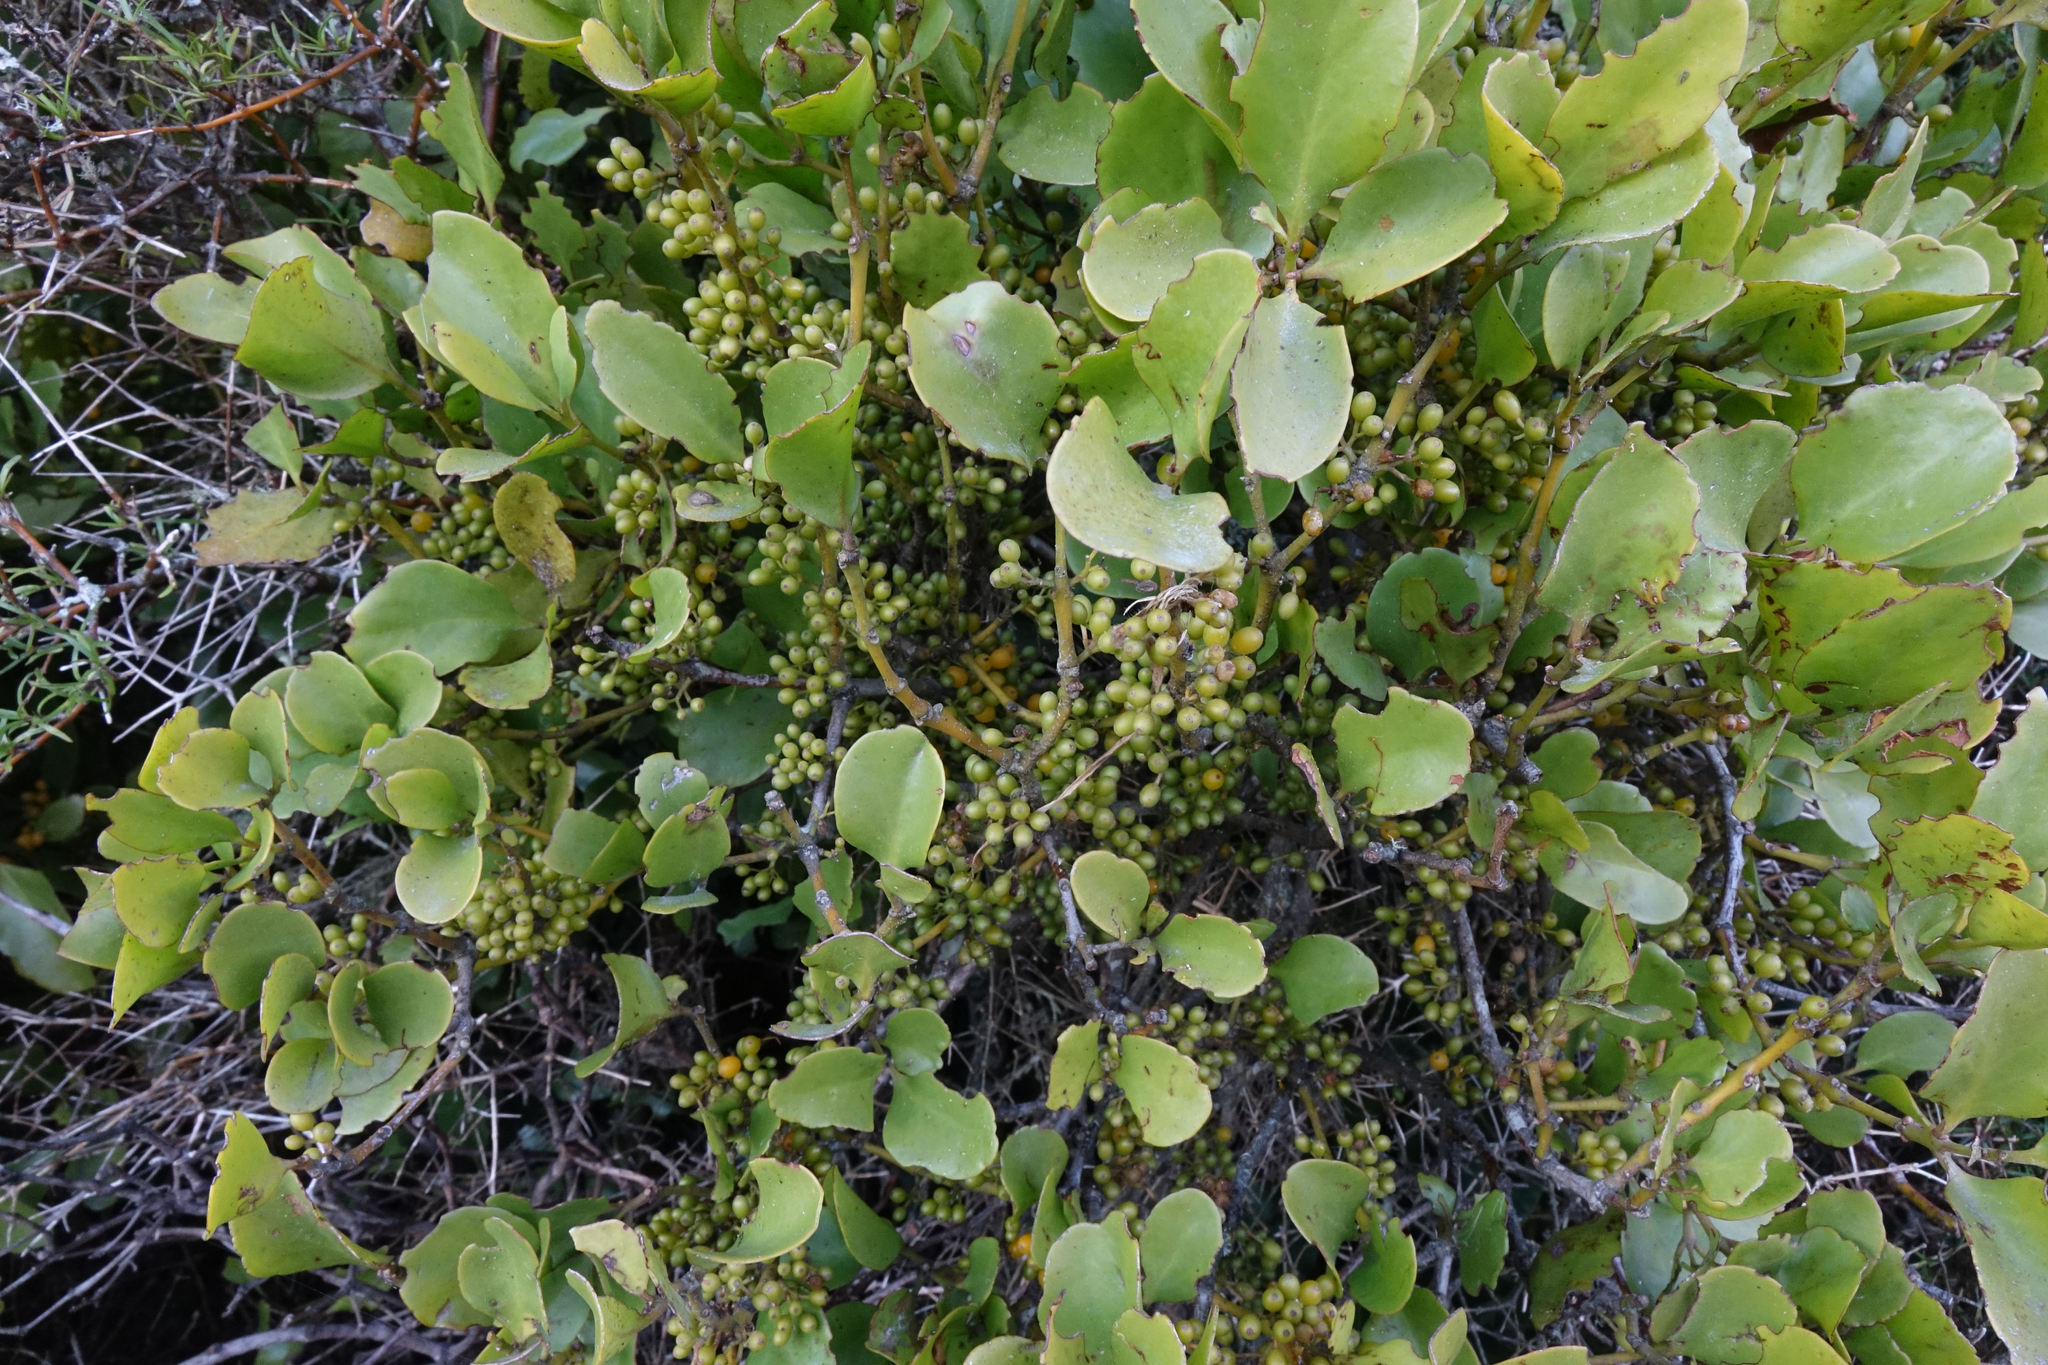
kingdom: Plantae
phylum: Tracheophyta
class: Magnoliopsida
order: Santalales
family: Loranthaceae
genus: Ileostylus
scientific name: Ileostylus micranthus
